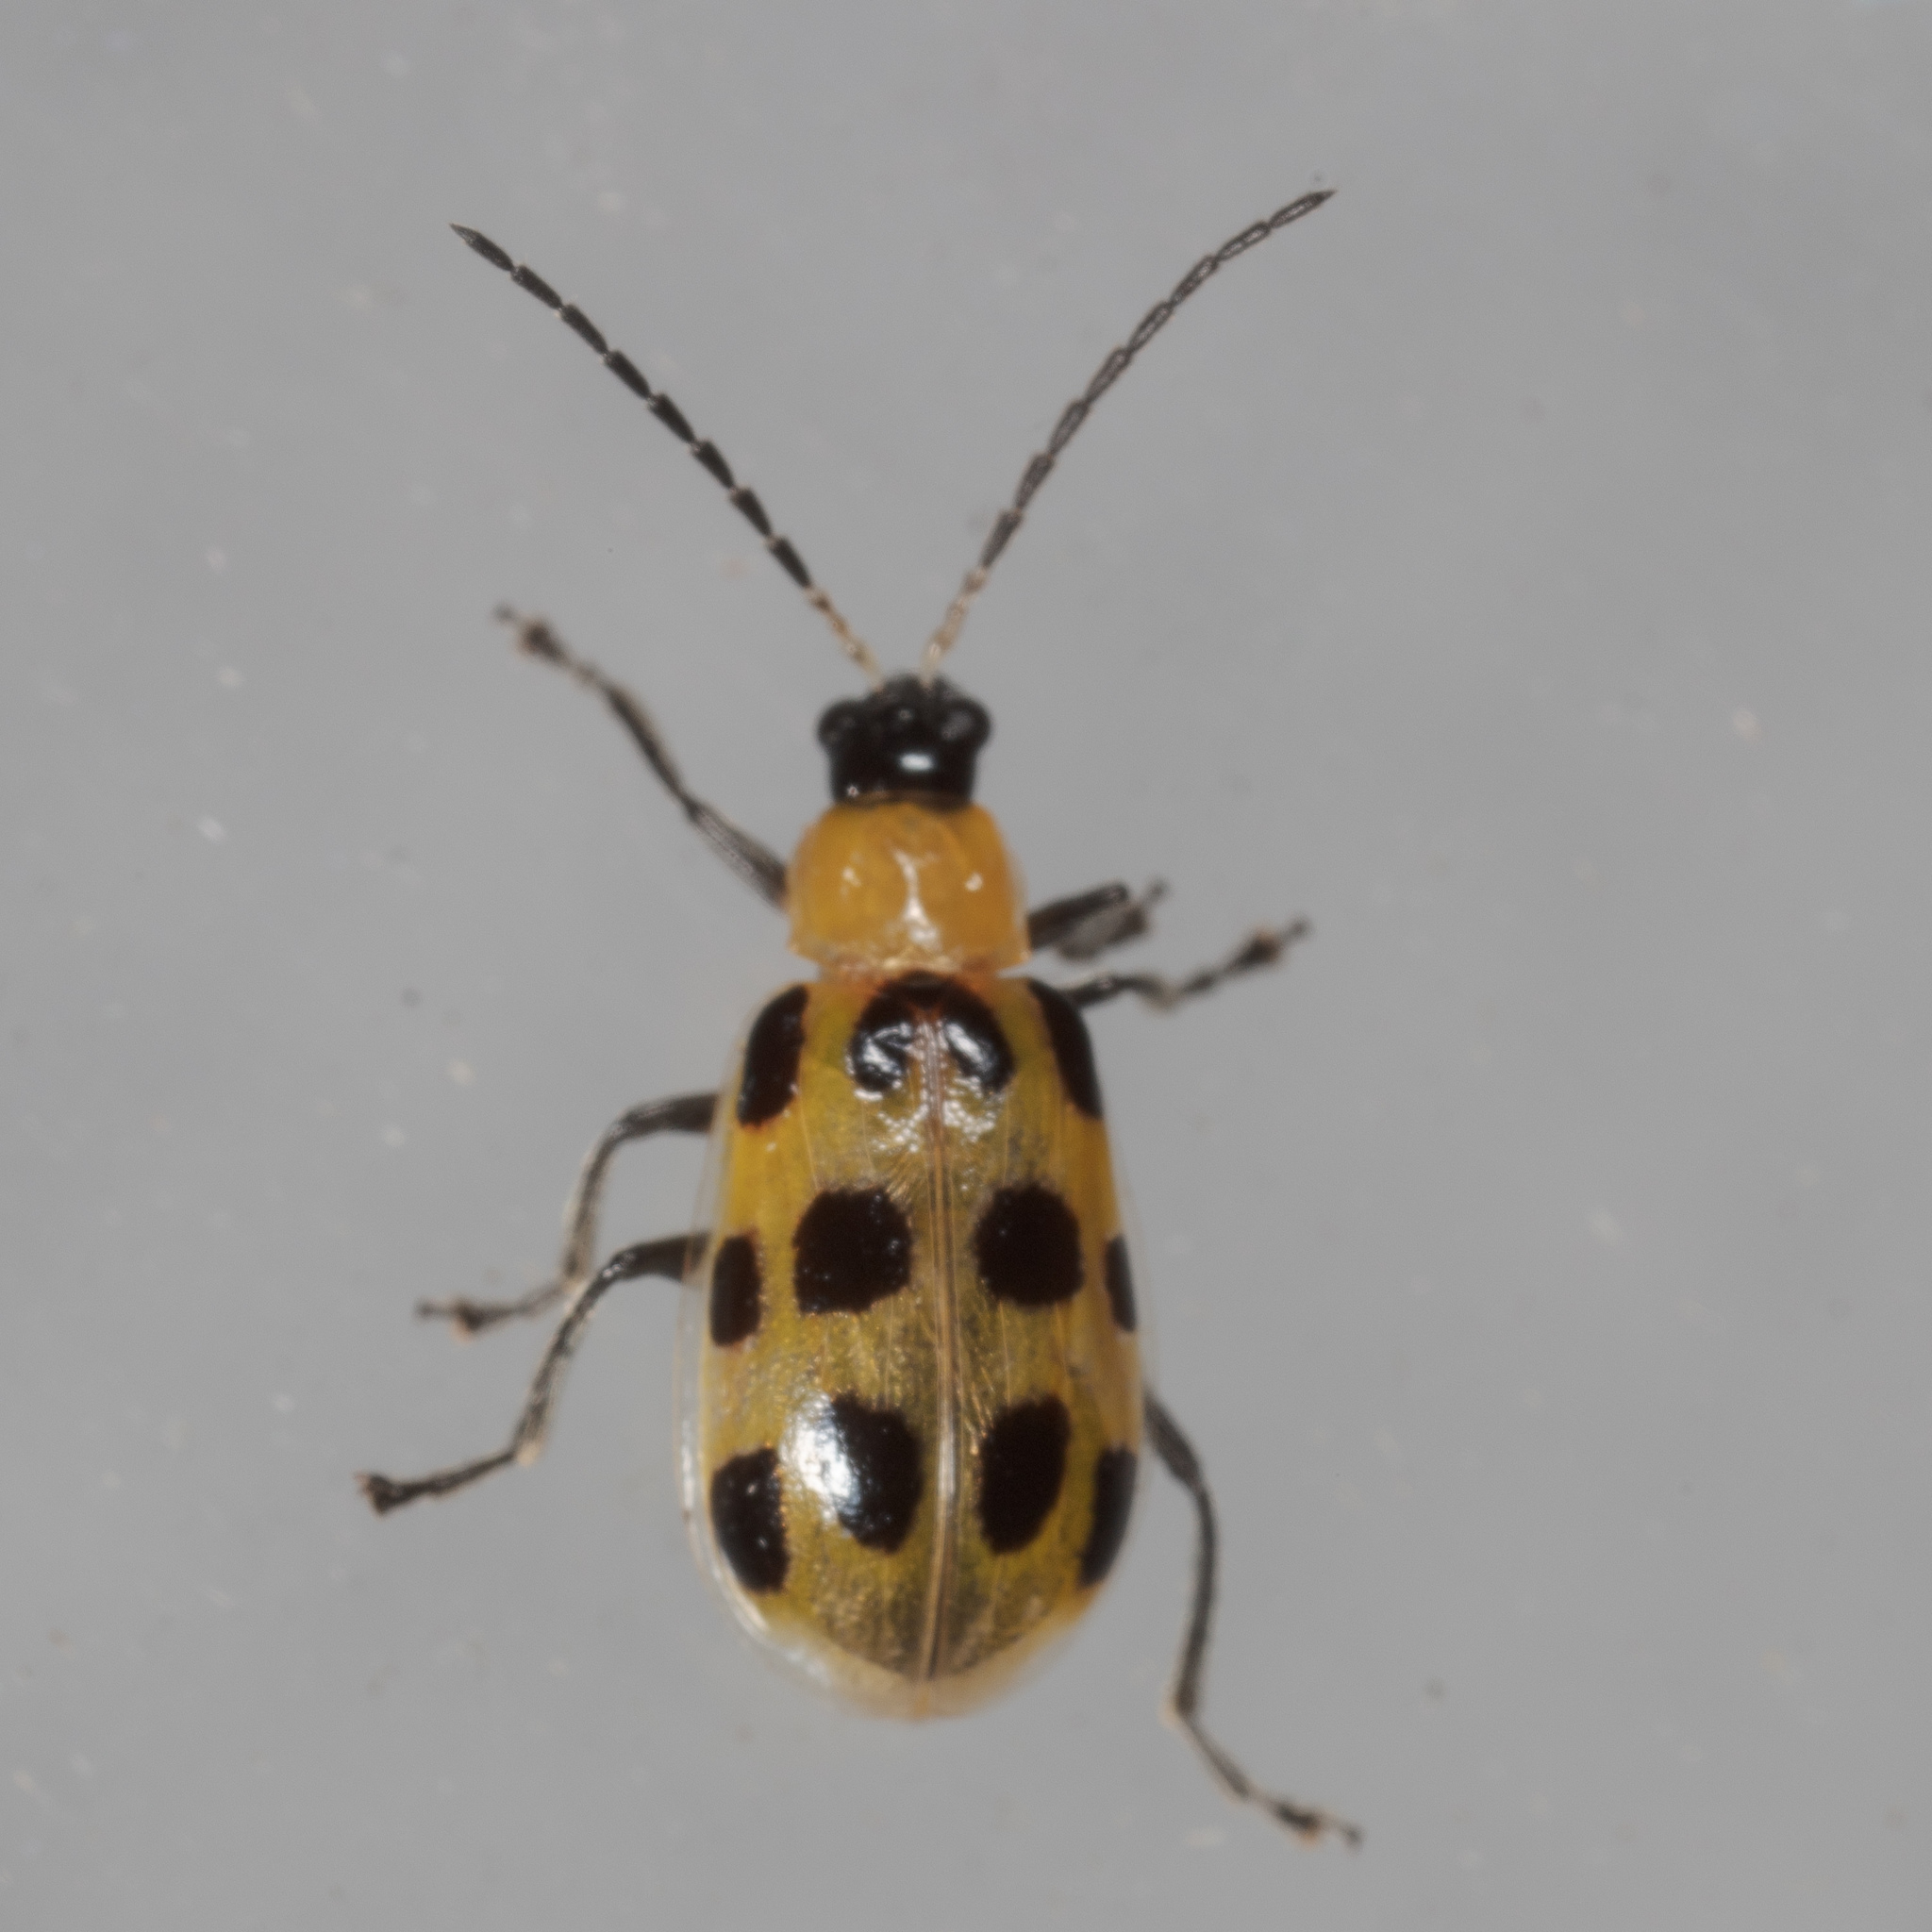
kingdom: Animalia
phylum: Arthropoda
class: Insecta
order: Coleoptera
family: Chrysomelidae
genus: Diabrotica
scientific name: Diabrotica undecimpunctata
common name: Spotted cucumber beetle
